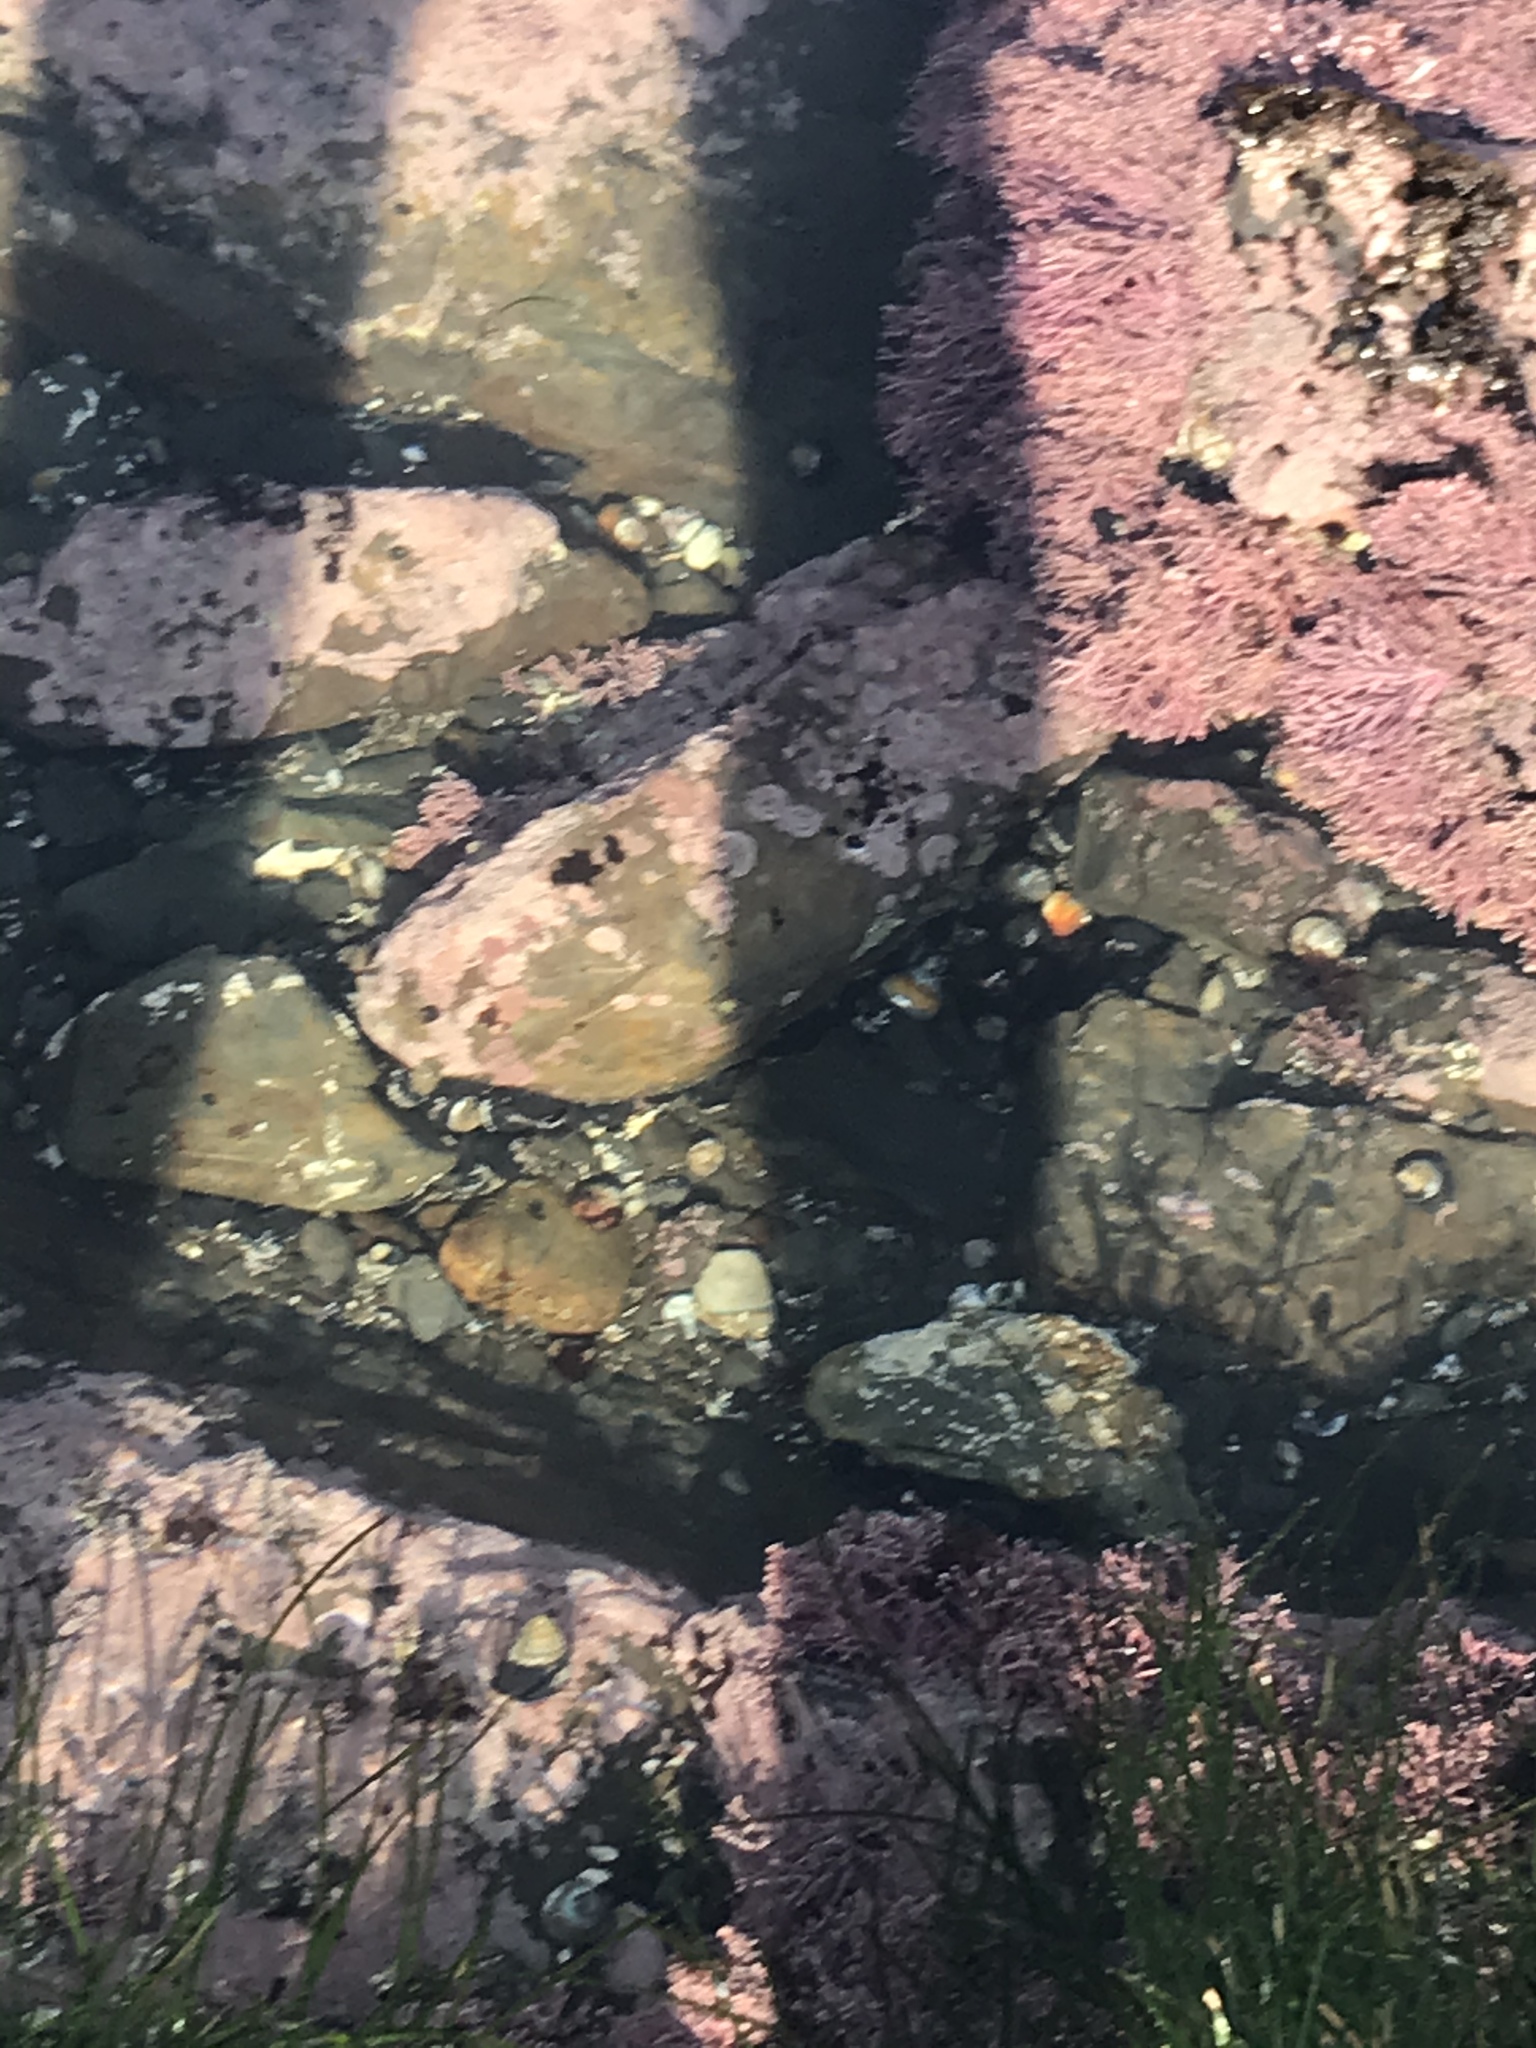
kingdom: Animalia
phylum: Mollusca
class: Gastropoda
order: Trochida
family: Tegulidae
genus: Tegula
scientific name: Tegula funebralis
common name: Black tegula
